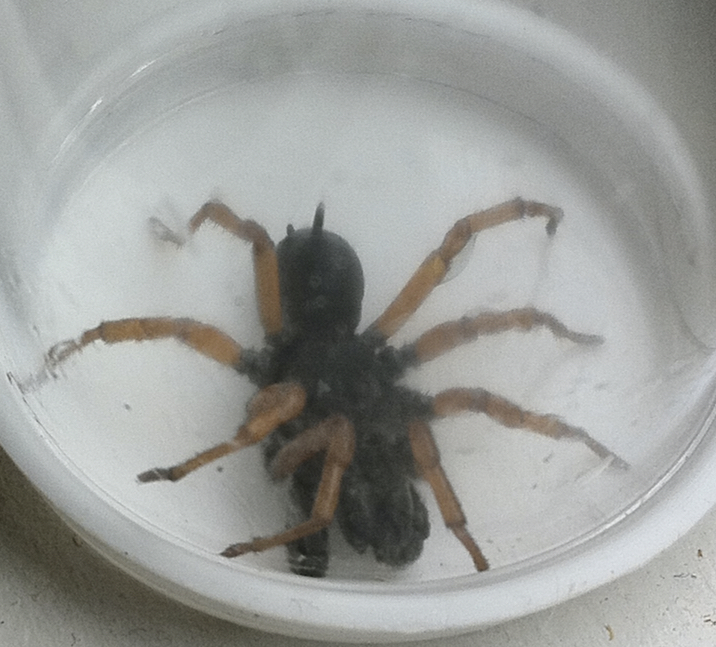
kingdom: Animalia
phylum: Arthropoda
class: Arachnida
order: Araneae
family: Atypidae
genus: Sphodros
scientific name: Sphodros rufipes
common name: Red-legged purseweb spider
